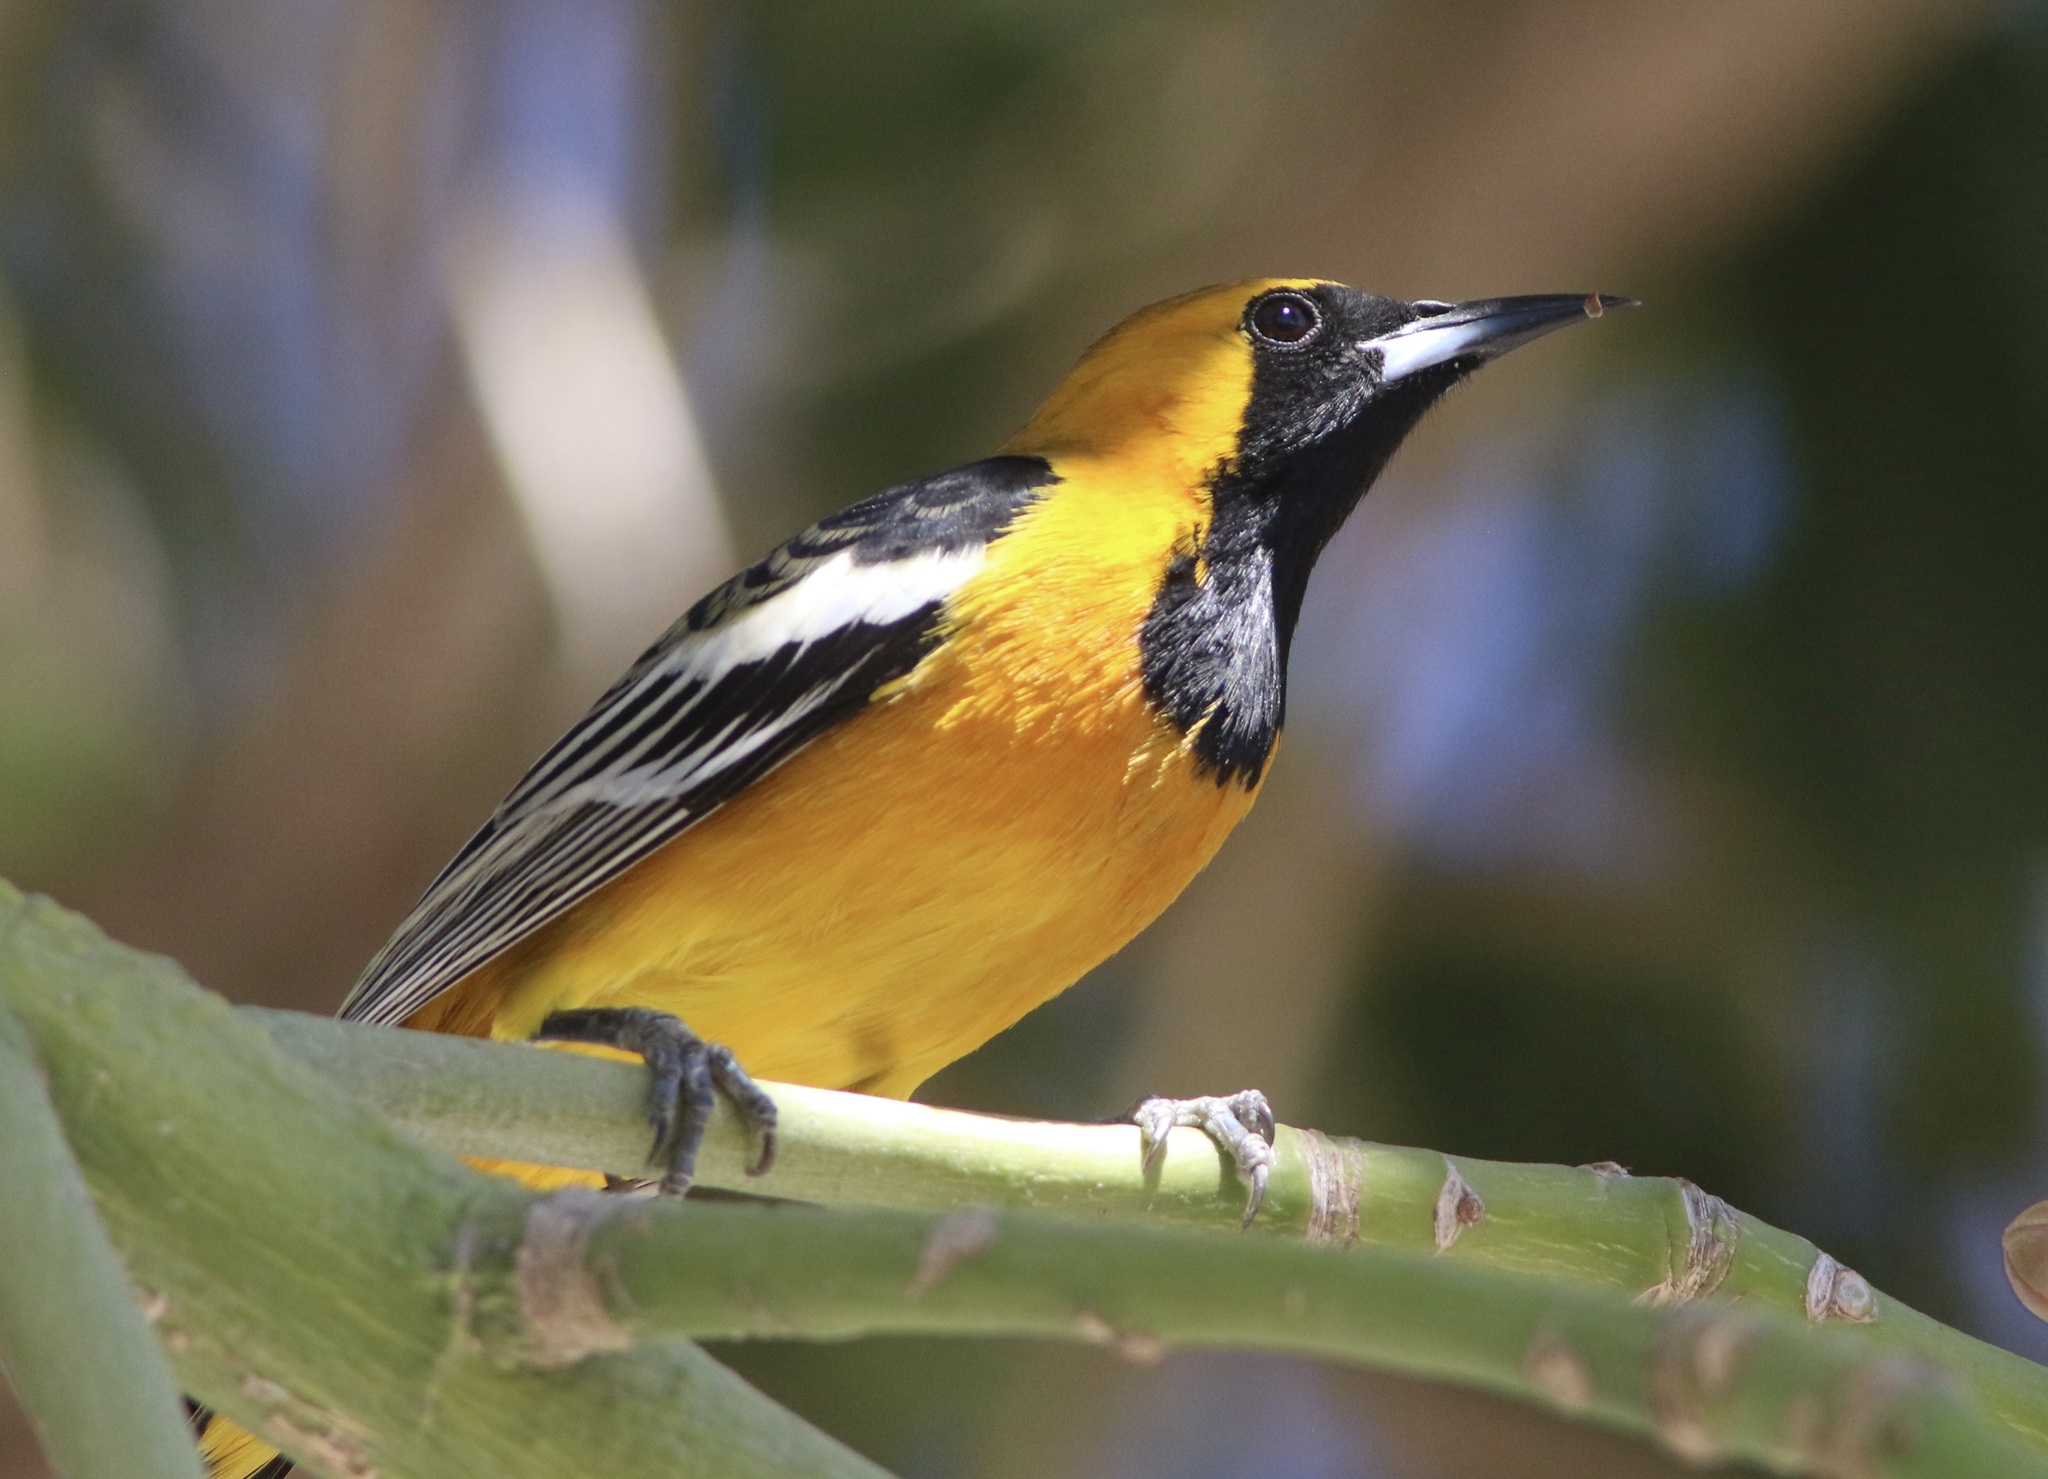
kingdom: Animalia
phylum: Chordata
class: Aves
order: Passeriformes
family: Icteridae
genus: Icterus
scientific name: Icterus cucullatus
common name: Hooded oriole
